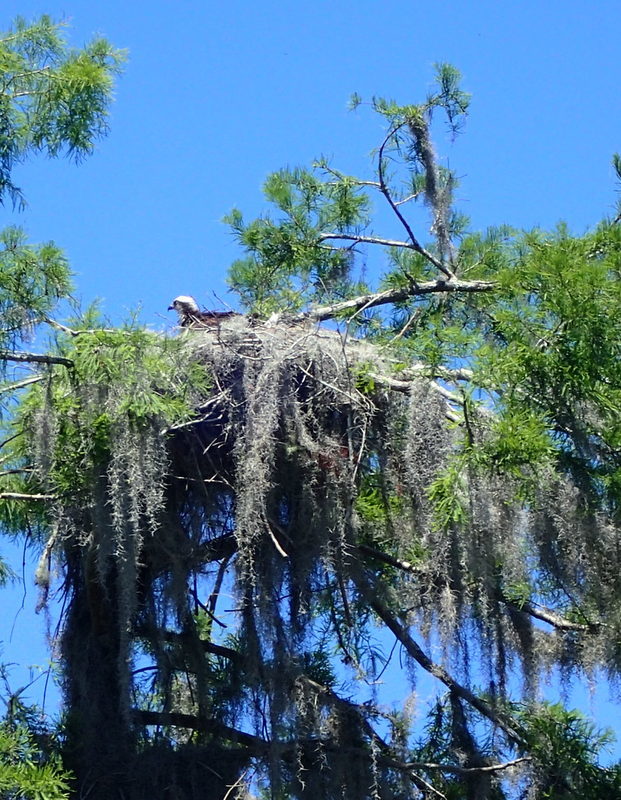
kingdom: Animalia
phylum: Chordata
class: Aves
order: Accipitriformes
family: Pandionidae
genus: Pandion
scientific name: Pandion haliaetus
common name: Osprey
